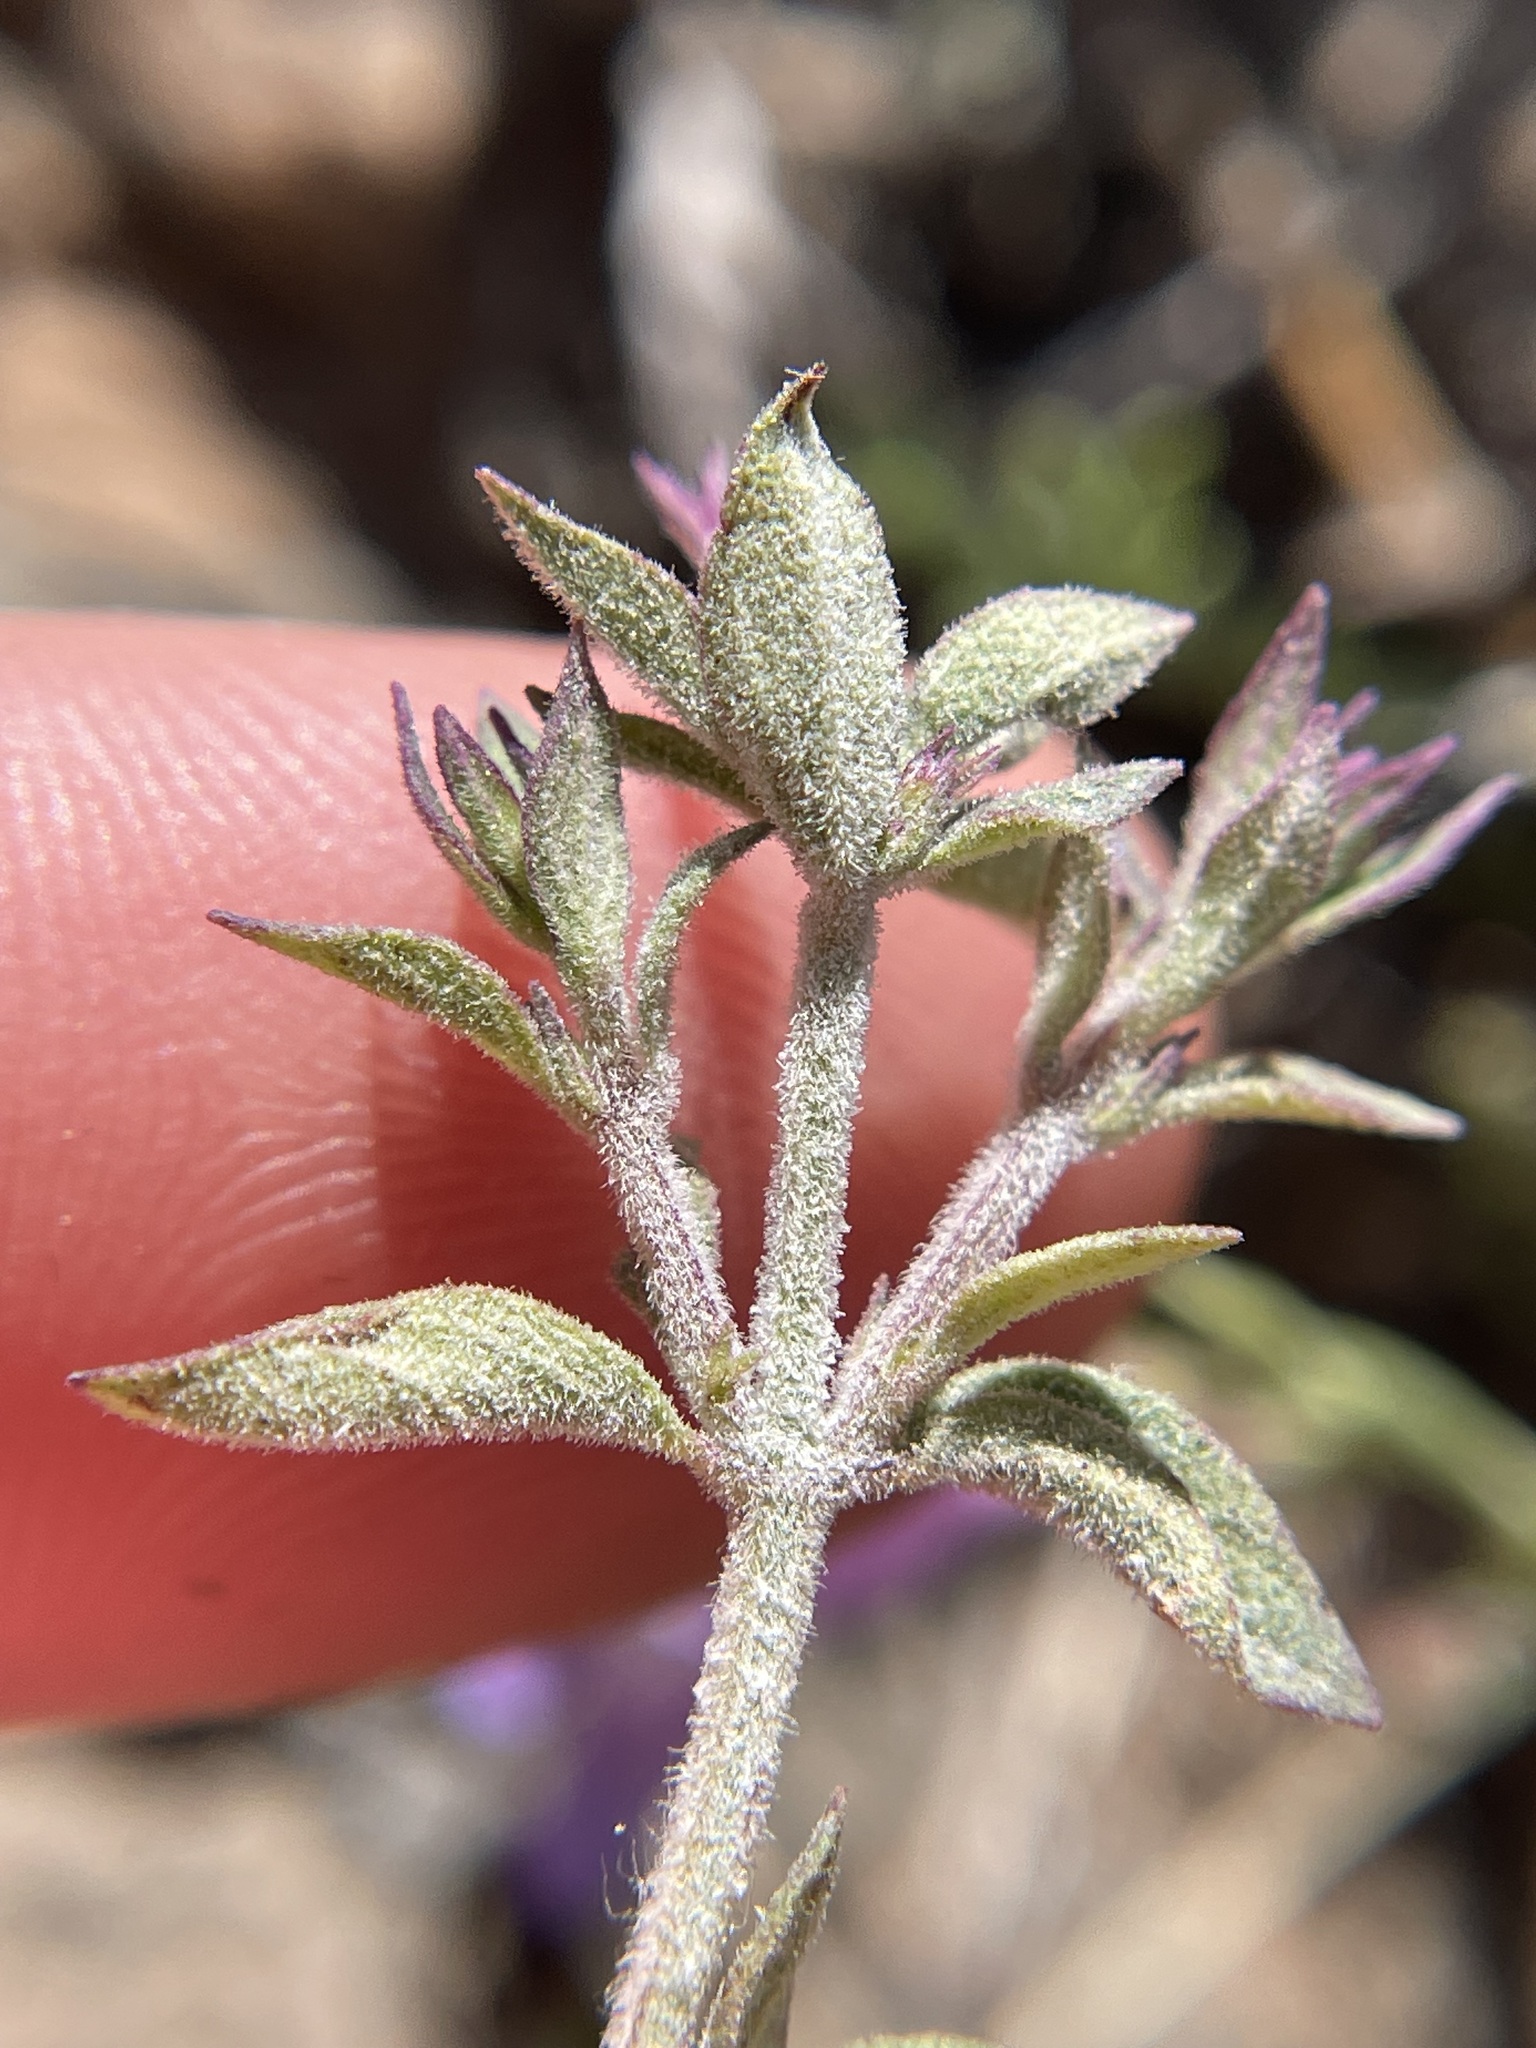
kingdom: Plantae
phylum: Tracheophyta
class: Magnoliopsida
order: Lamiales
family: Lamiaceae
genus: Hedeoma
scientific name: Hedeoma oblongifolia
